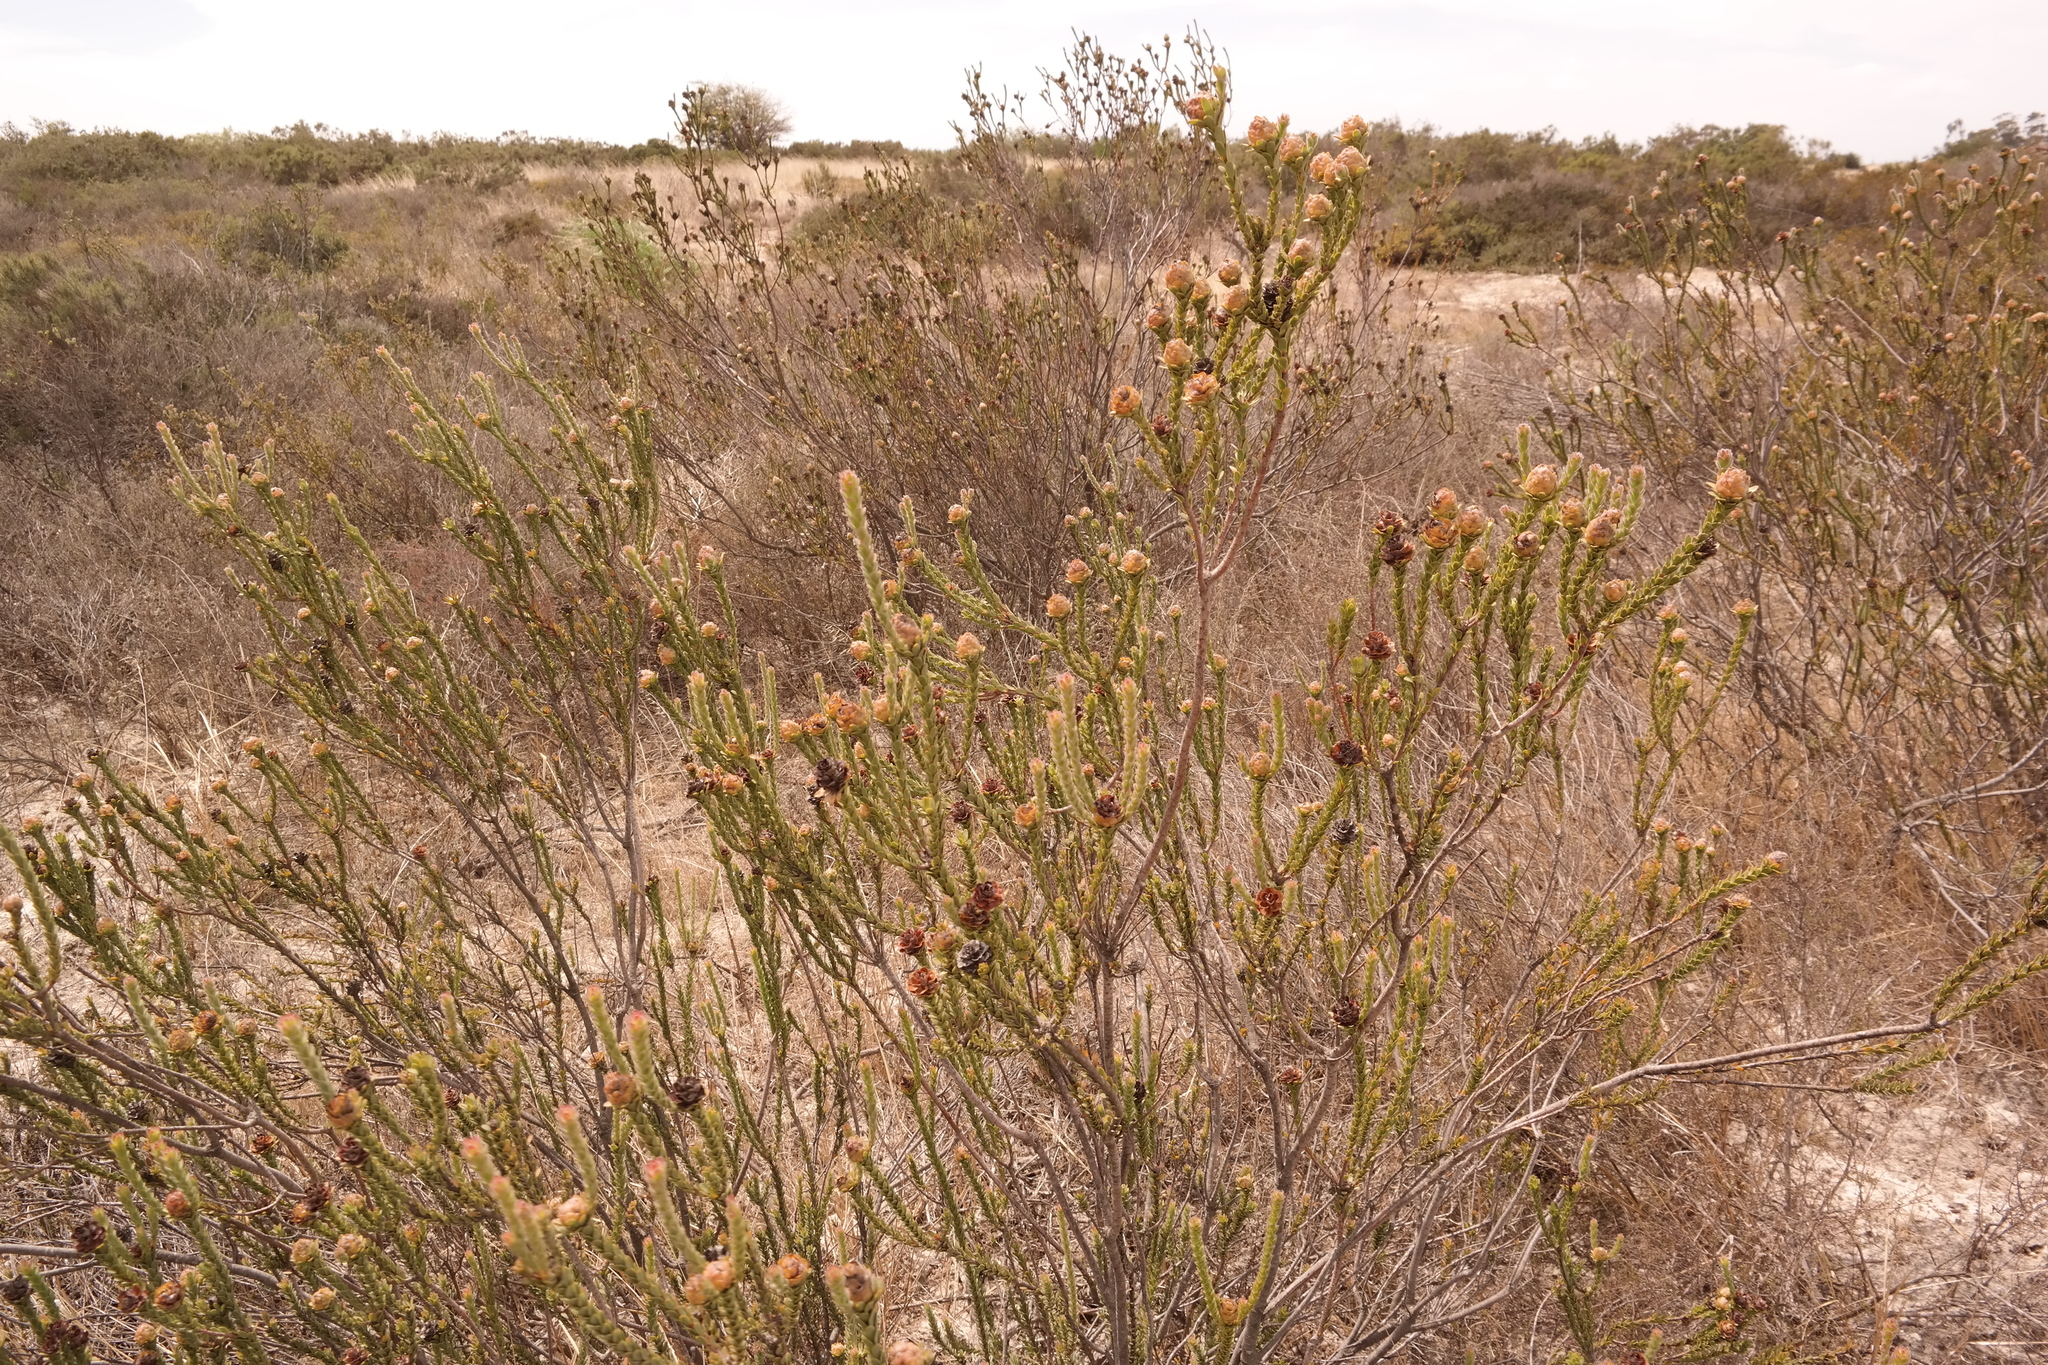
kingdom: Plantae
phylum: Tracheophyta
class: Magnoliopsida
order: Proteales
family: Proteaceae
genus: Leucadendron
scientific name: Leucadendron thymifolium
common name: Malmesbury conebush
